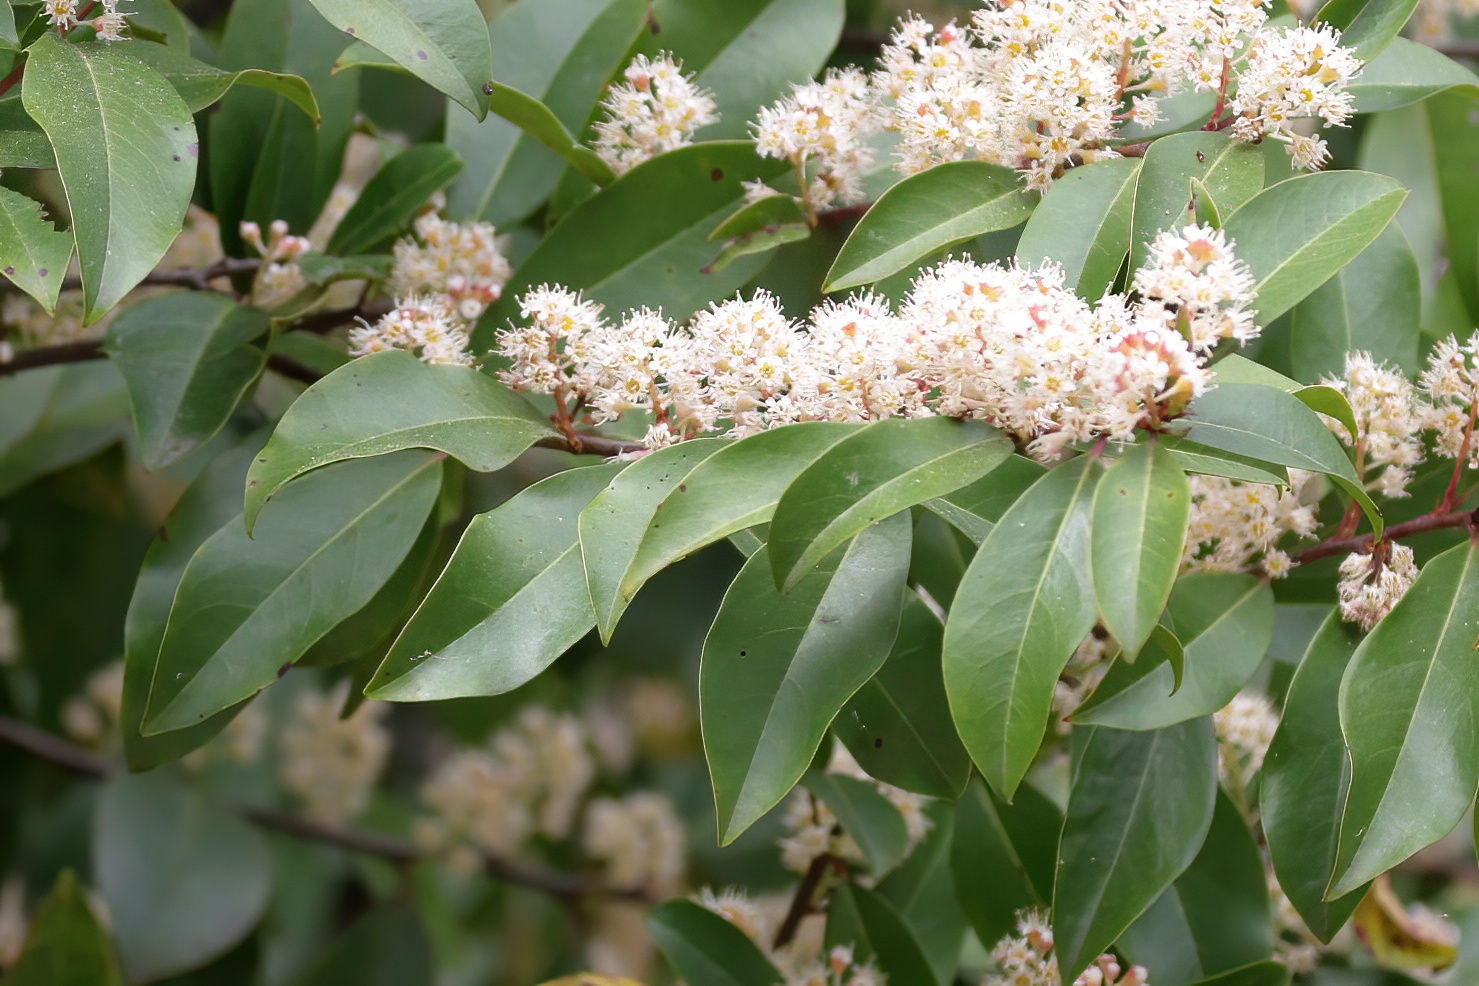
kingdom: Plantae
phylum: Tracheophyta
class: Magnoliopsida
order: Rosales
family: Rosaceae
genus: Prunus
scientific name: Prunus caroliniana
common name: Carolina laurel cherry
